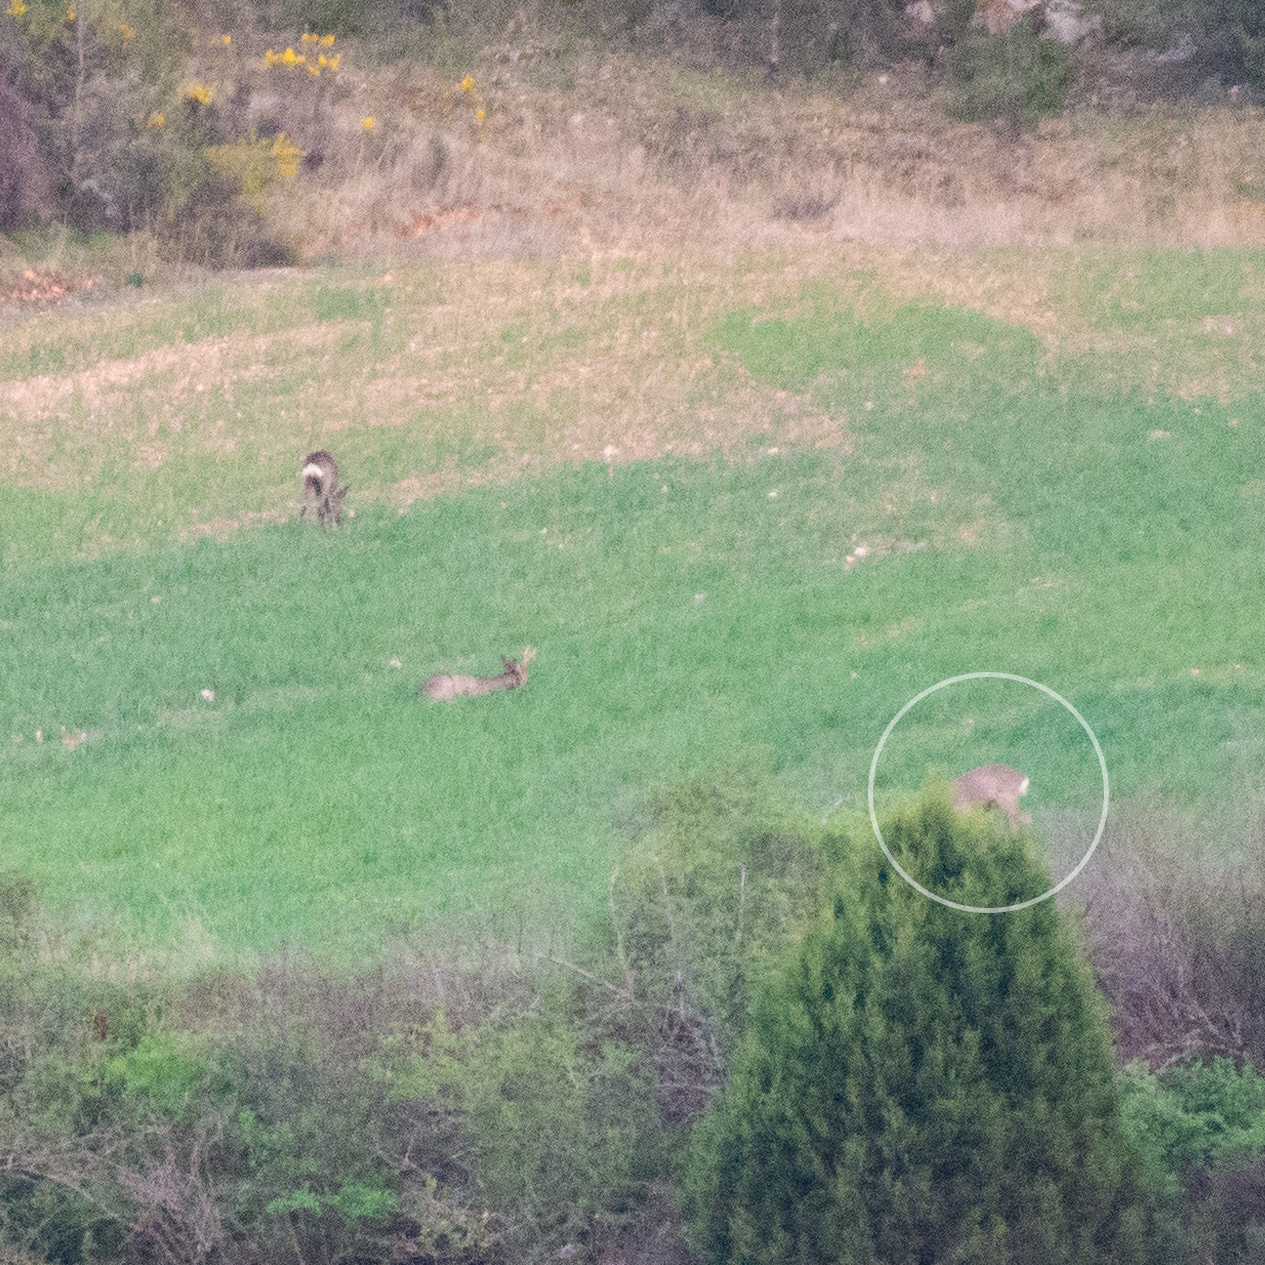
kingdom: Animalia
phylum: Chordata
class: Mammalia
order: Artiodactyla
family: Cervidae
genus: Capreolus
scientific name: Capreolus capreolus
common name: Western roe deer
